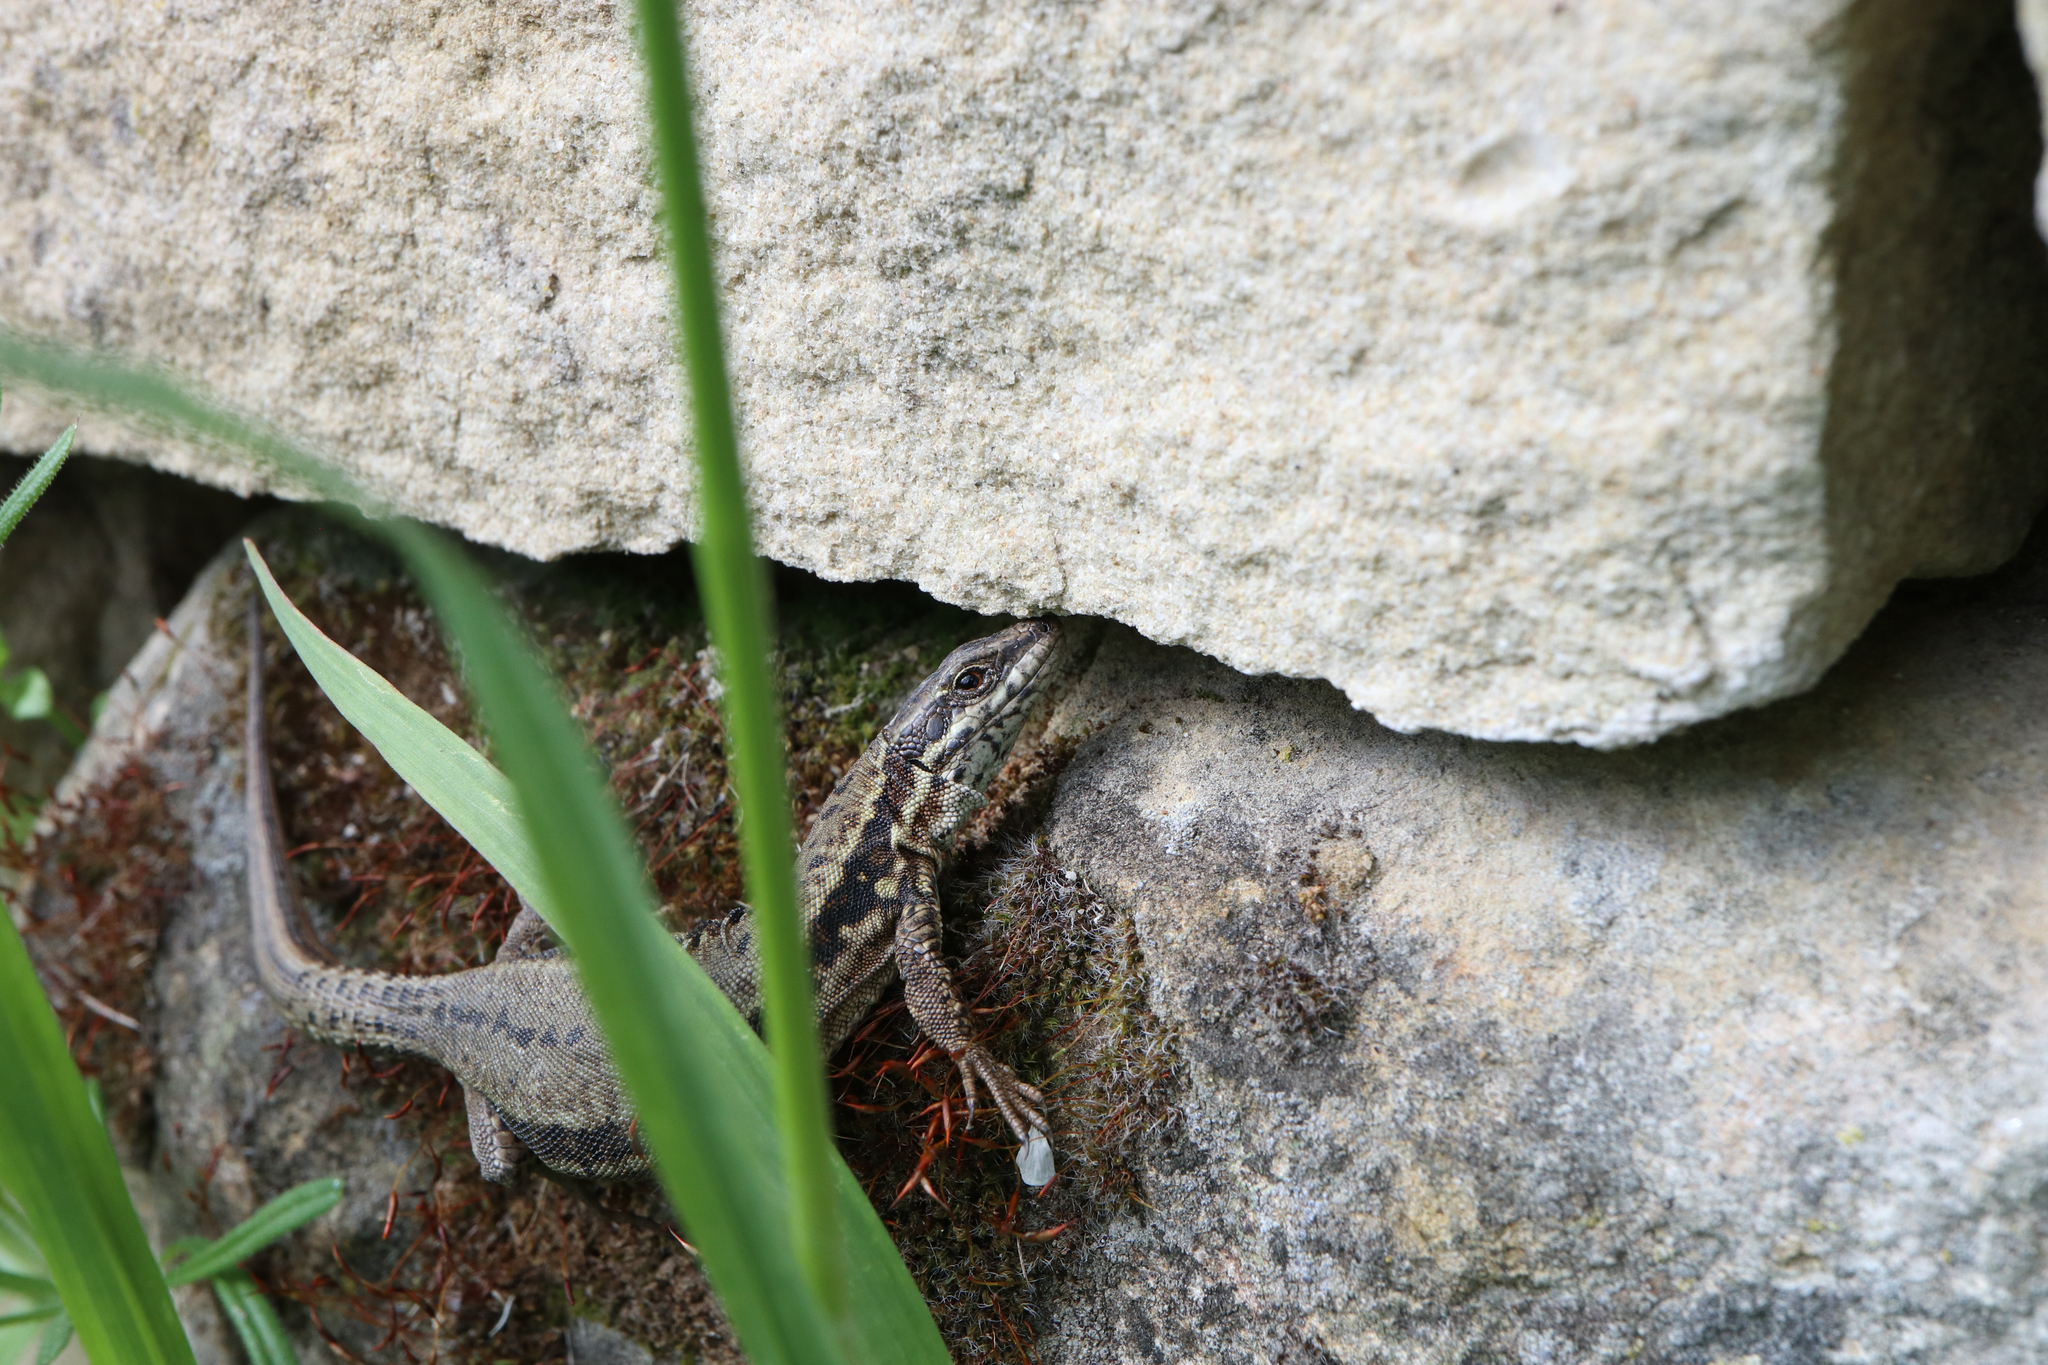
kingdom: Animalia
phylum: Chordata
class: Squamata
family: Lacertidae
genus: Podarcis
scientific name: Podarcis muralis
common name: Common wall lizard
